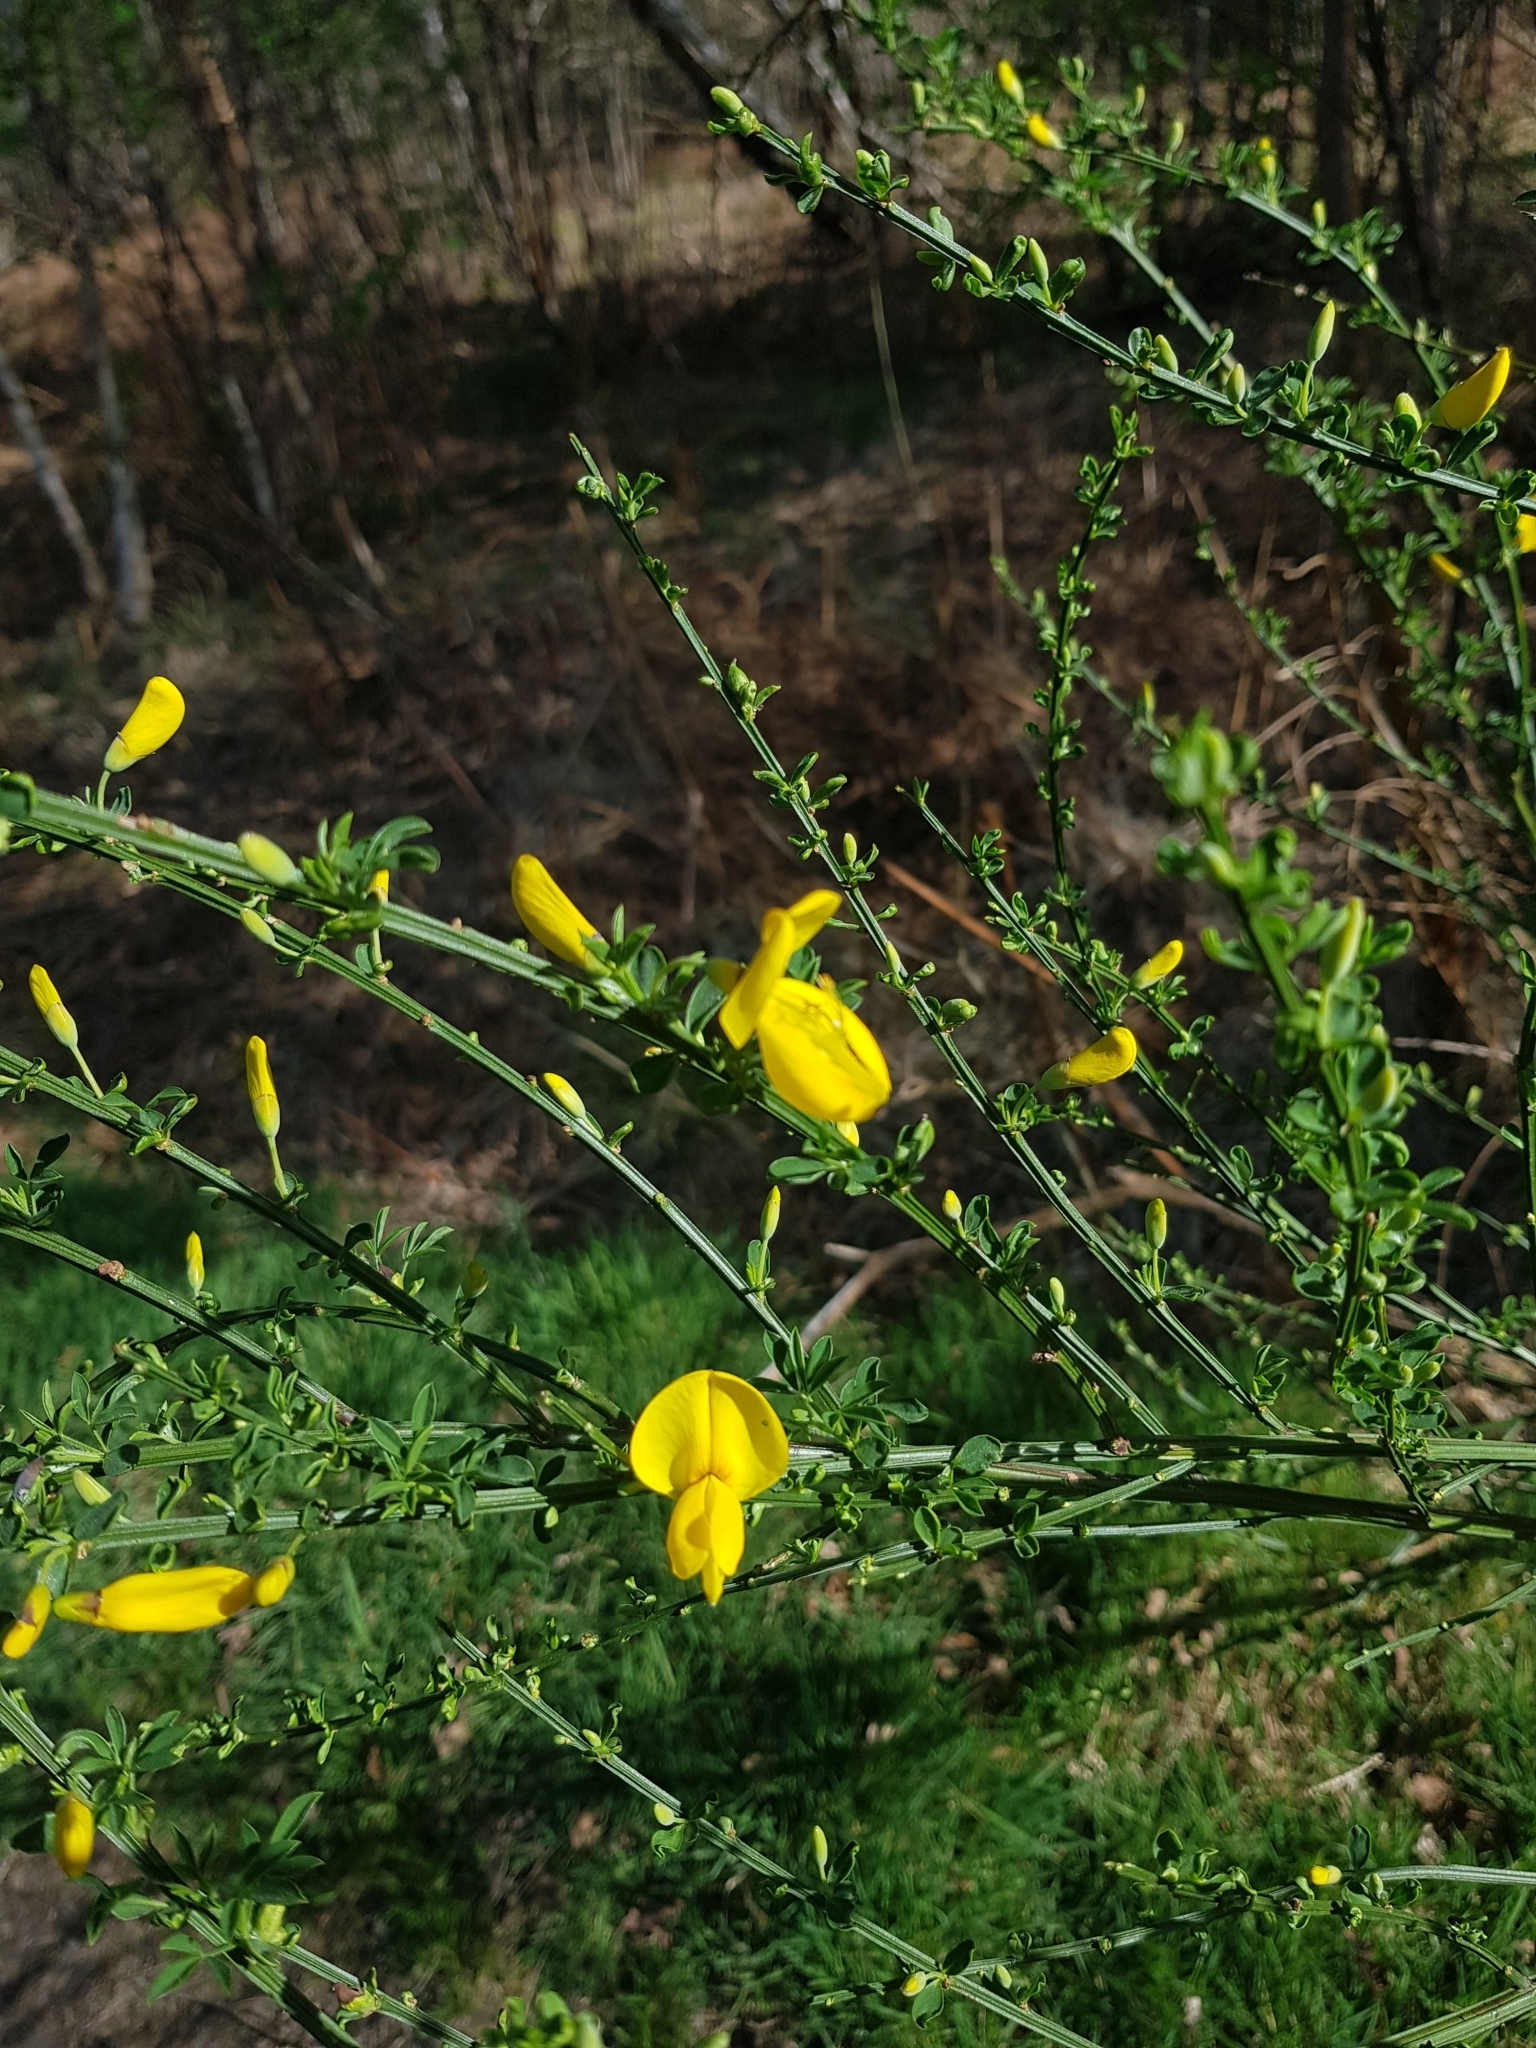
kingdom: Plantae
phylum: Tracheophyta
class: Magnoliopsida
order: Fabales
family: Fabaceae
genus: Cytisus
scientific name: Cytisus scoparius
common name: Scotch broom
